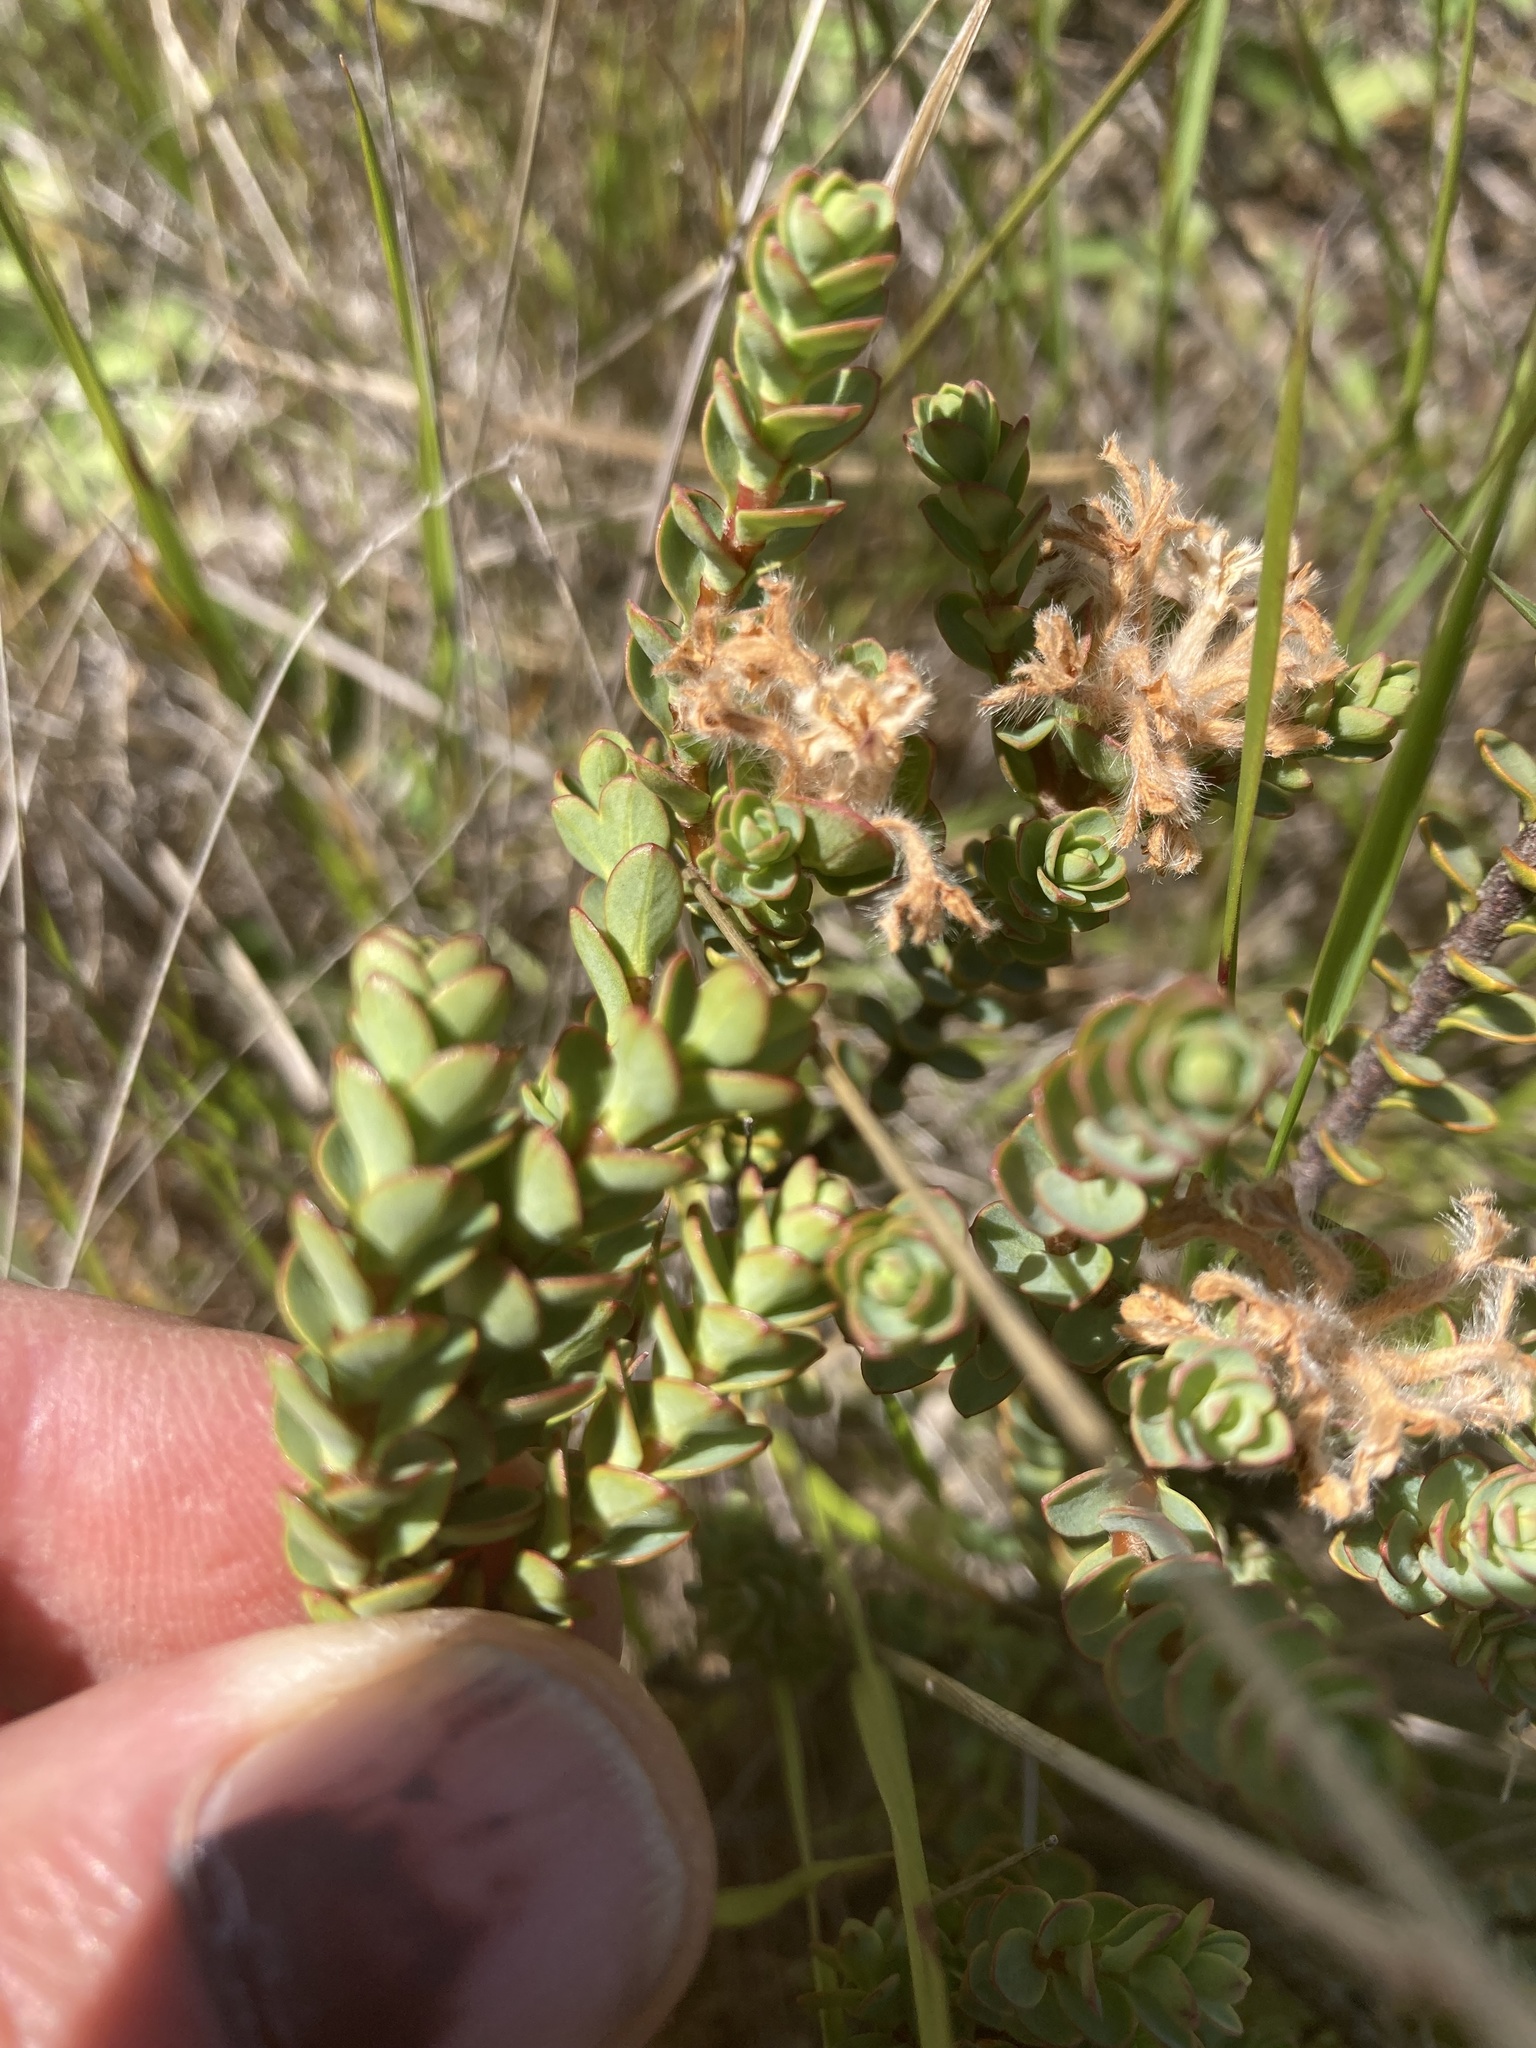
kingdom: Plantae
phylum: Tracheophyta
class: Magnoliopsida
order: Malvales
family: Thymelaeaceae
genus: Pimelea
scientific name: Pimelea traversii
